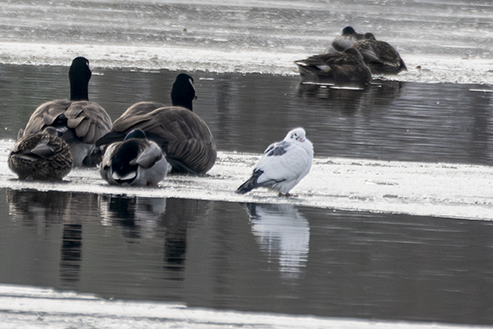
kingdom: Animalia
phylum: Chordata
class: Aves
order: Columbiformes
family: Columbidae
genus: Columba
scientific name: Columba livia
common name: Rock pigeon
